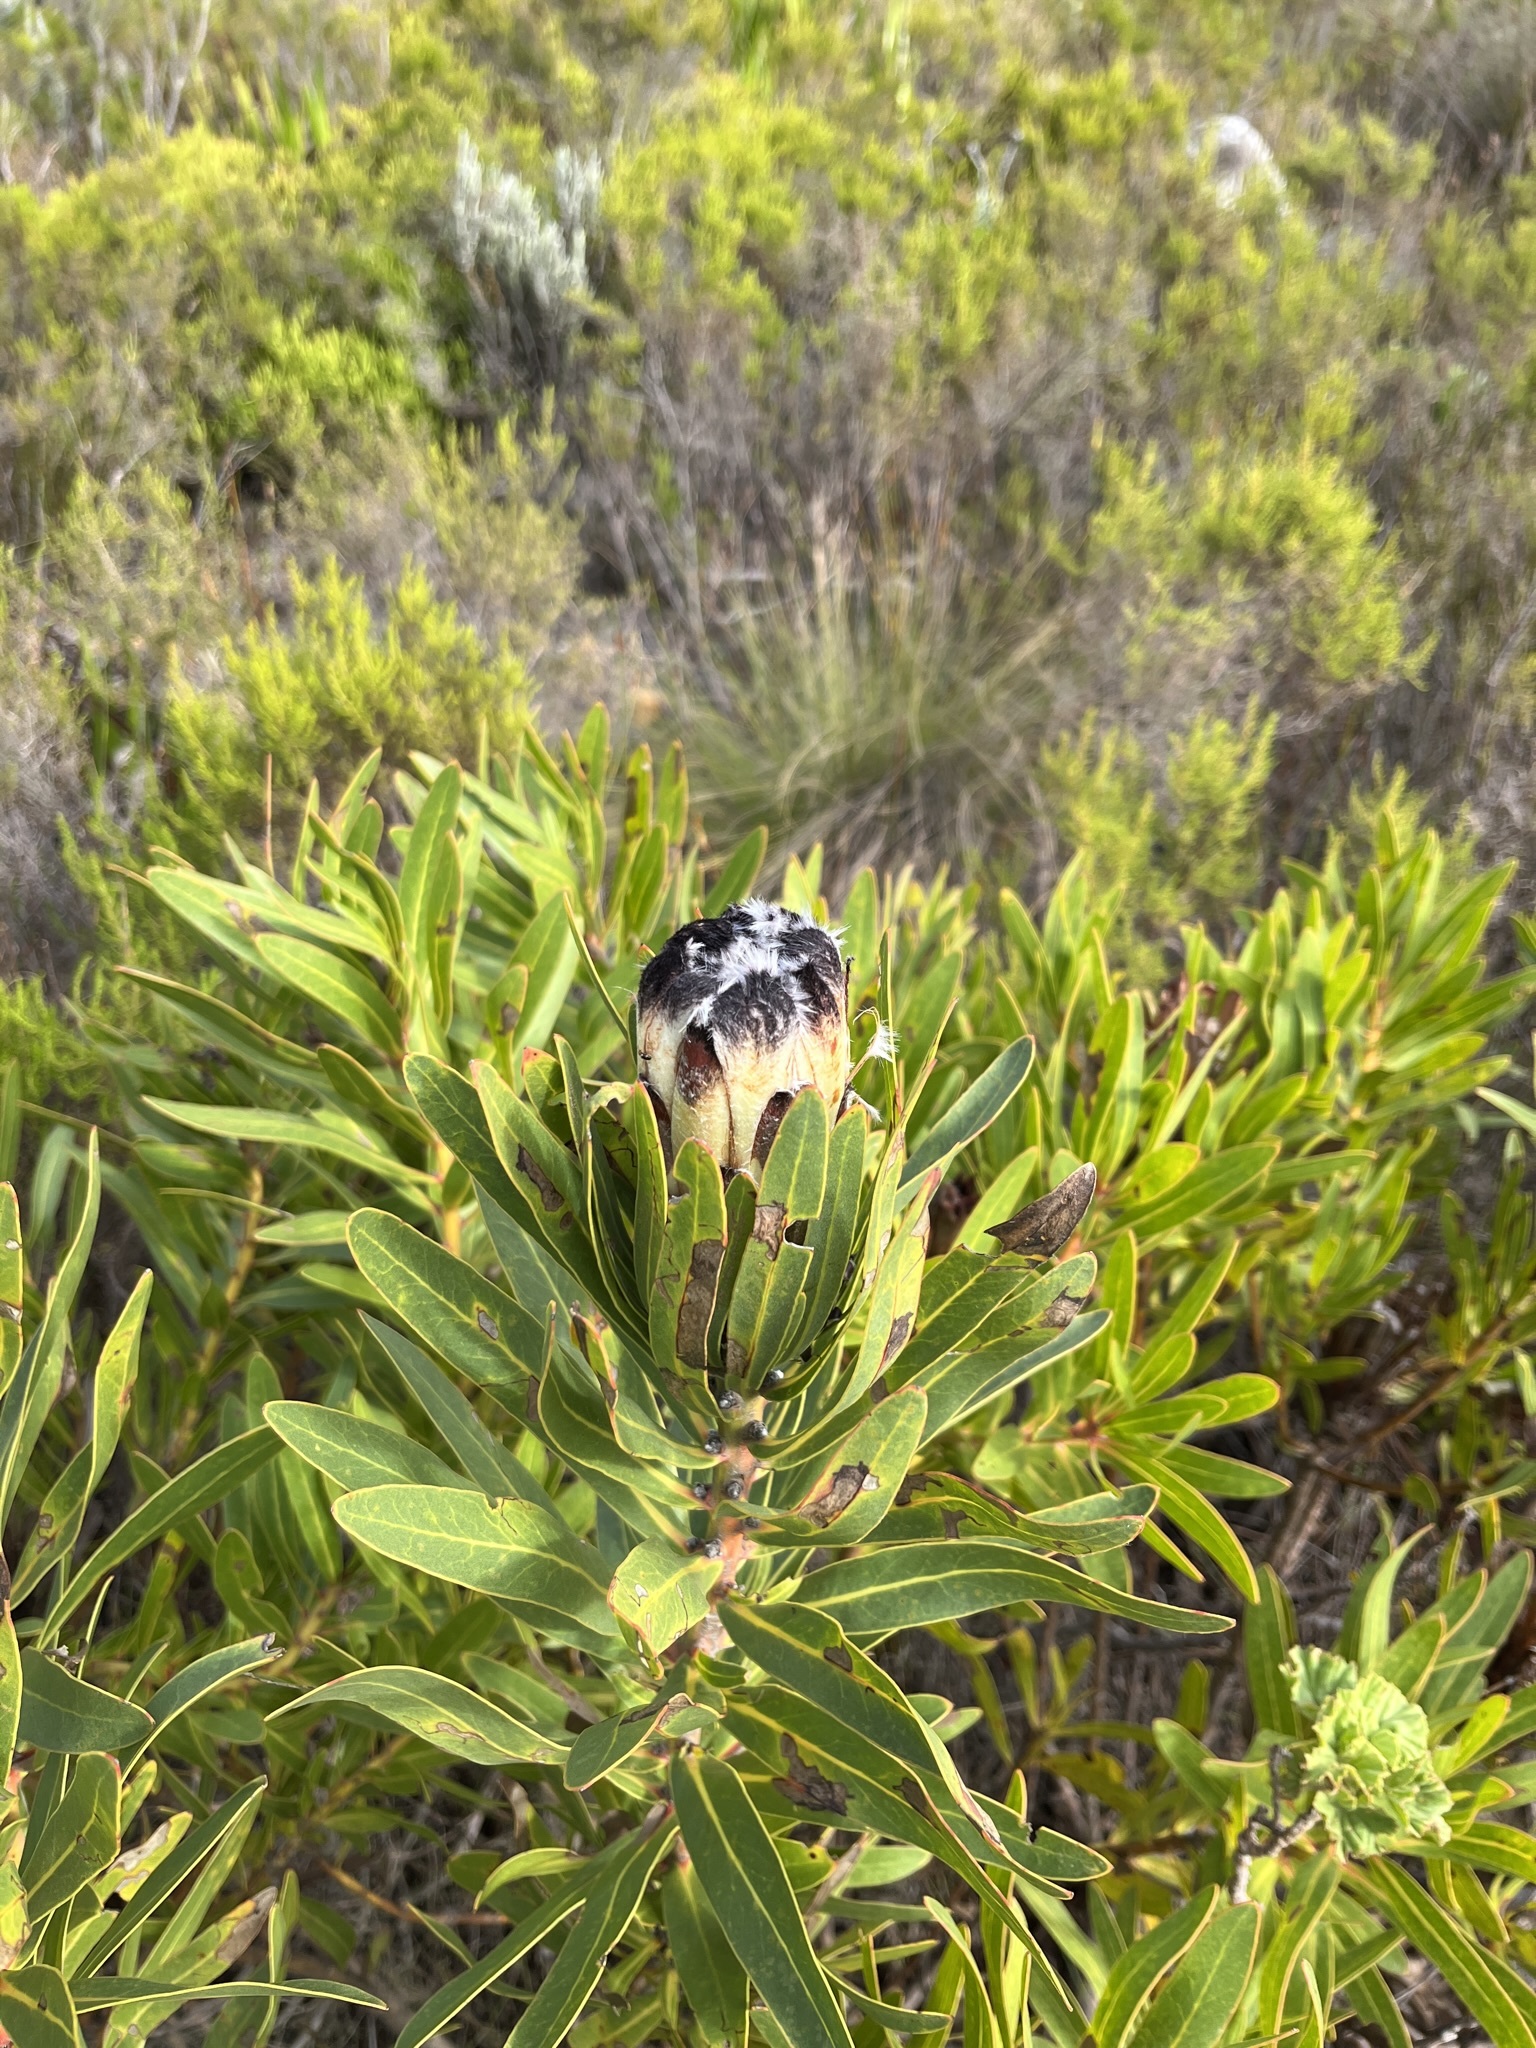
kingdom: Plantae
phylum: Tracheophyta
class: Magnoliopsida
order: Proteales
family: Proteaceae
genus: Protea
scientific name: Protea lepidocarpodendron
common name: Black-bearded protea
